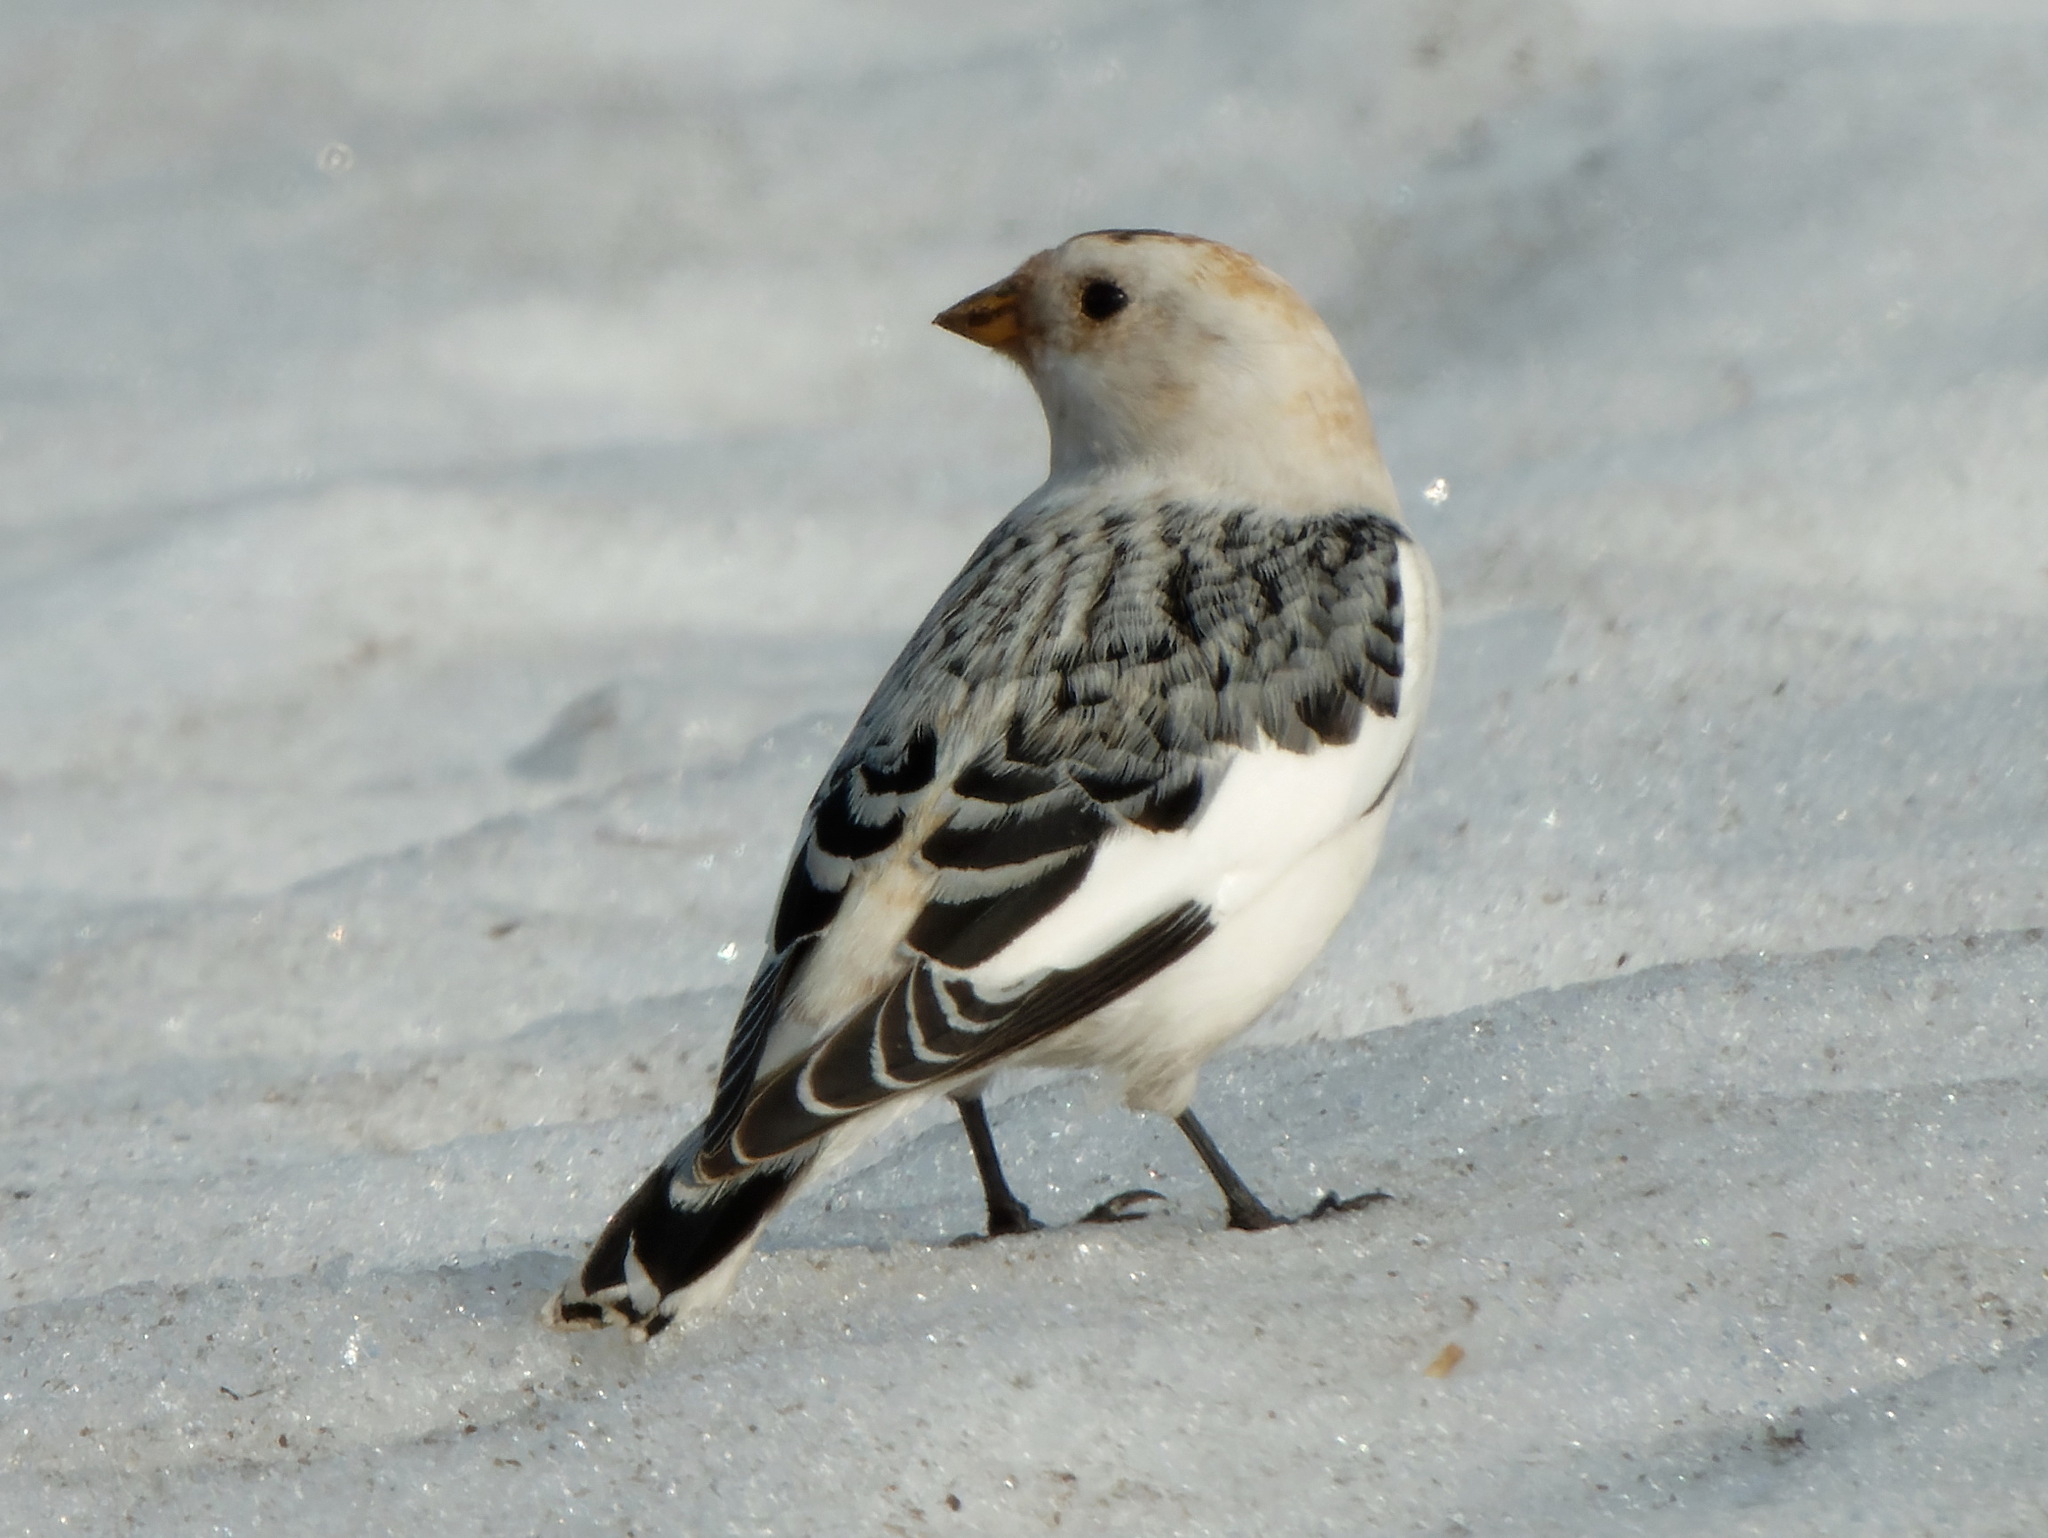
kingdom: Animalia
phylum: Chordata
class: Aves
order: Passeriformes
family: Calcariidae
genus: Plectrophenax
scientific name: Plectrophenax nivalis
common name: Snow bunting
